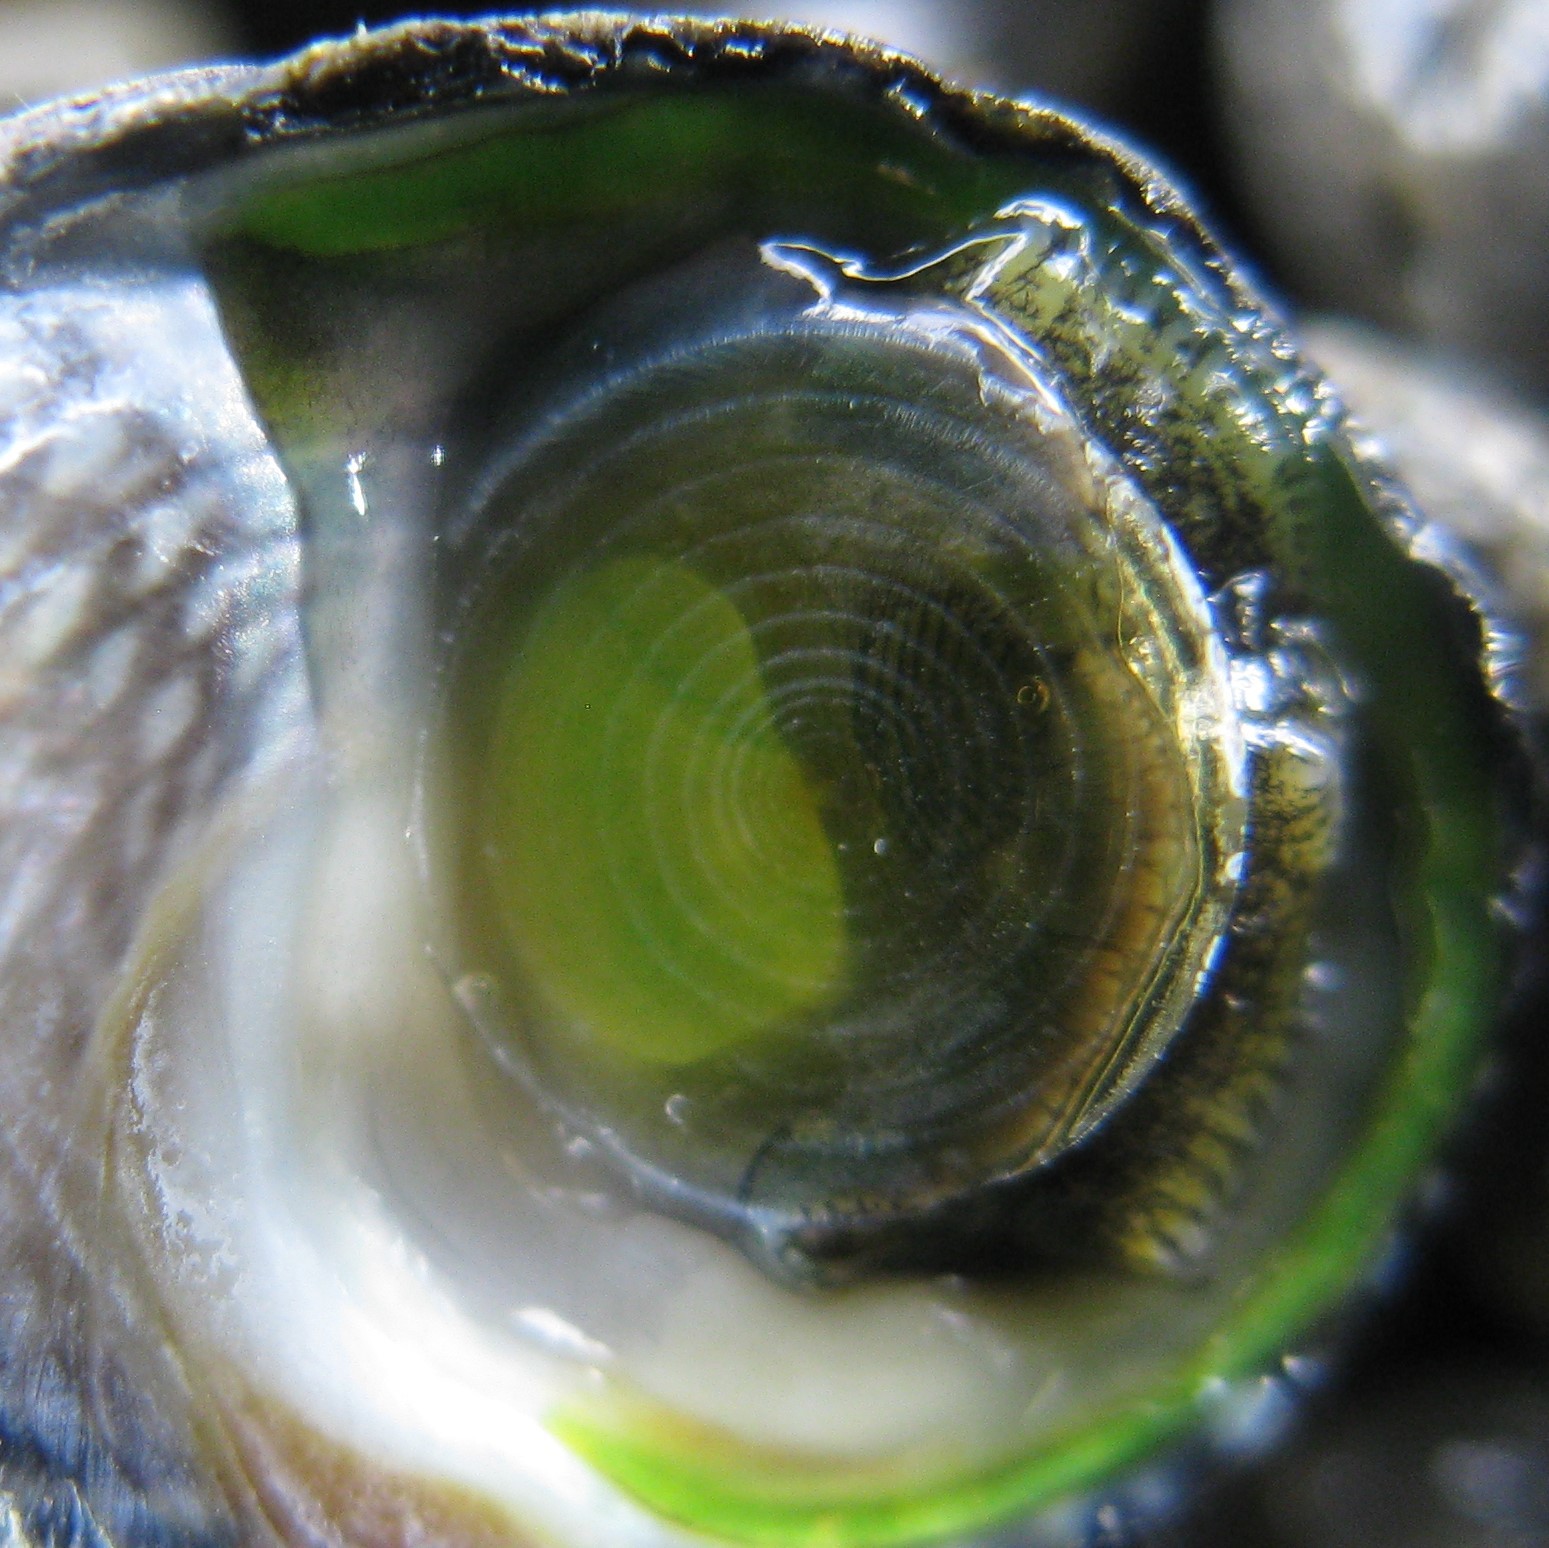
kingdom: Animalia
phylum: Mollusca
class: Gastropoda
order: Trochida
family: Trochidae
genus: Diloma
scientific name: Diloma zelandicum
